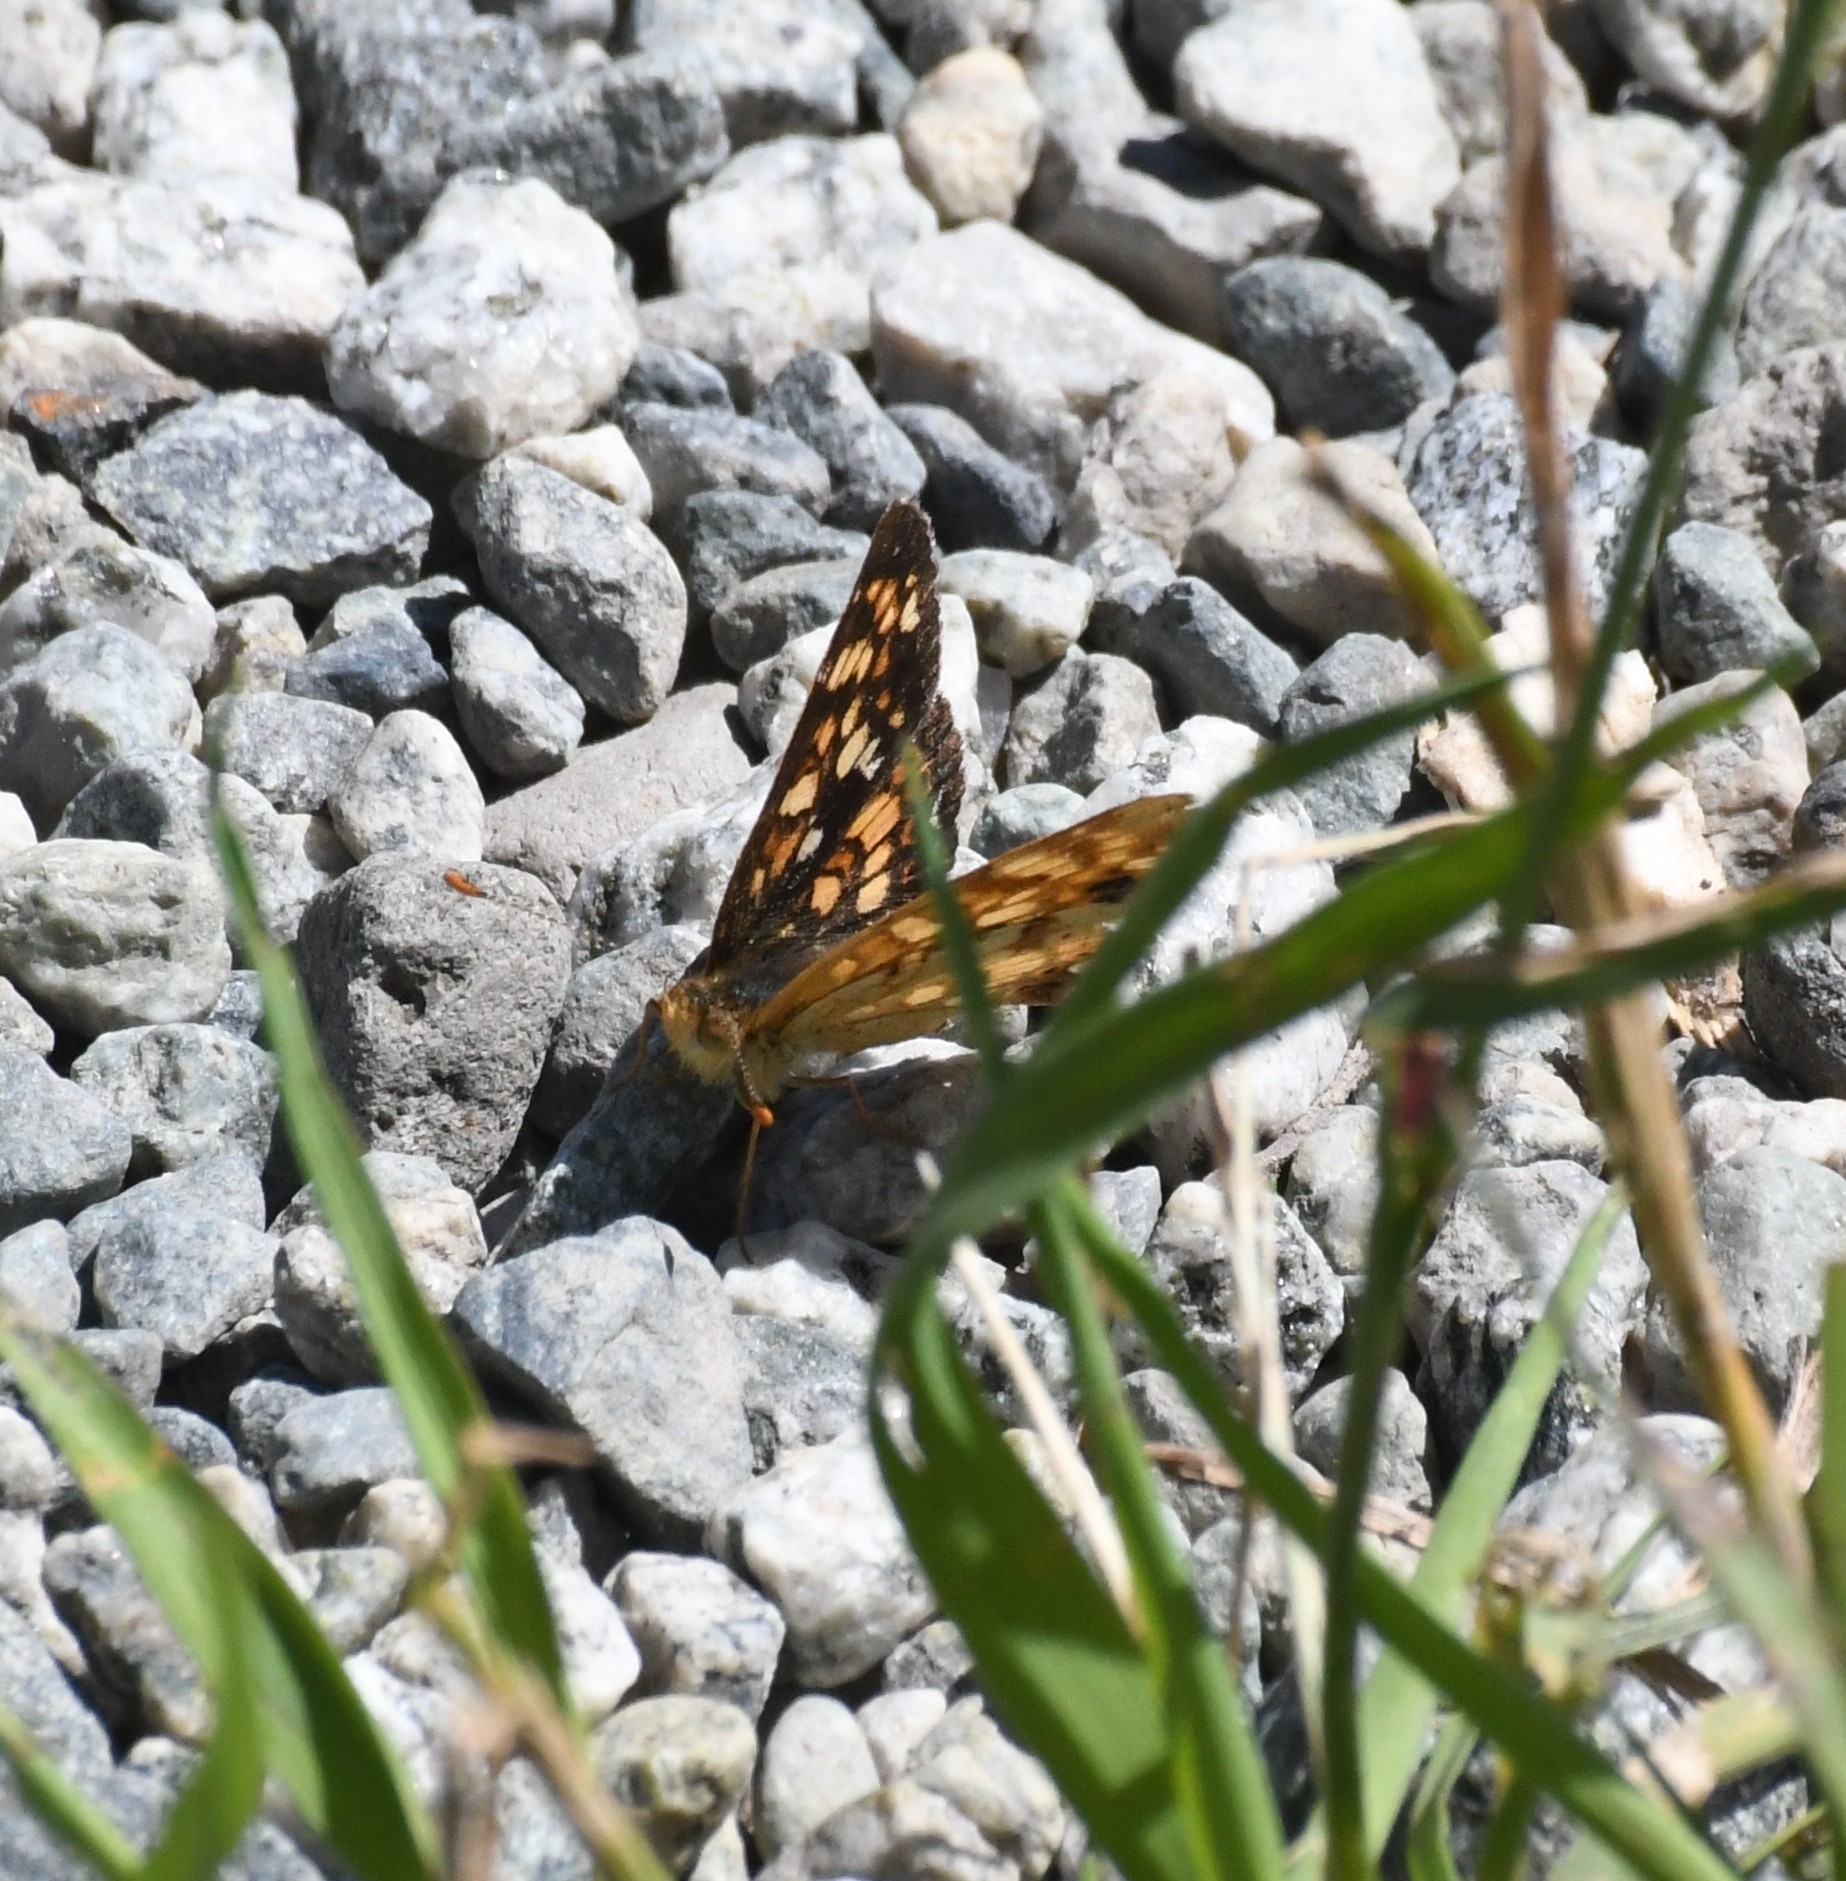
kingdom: Animalia
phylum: Arthropoda
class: Insecta
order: Lepidoptera
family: Nymphalidae
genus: Phyciodes
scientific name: Phyciodes tharos
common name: Pearl crescent
